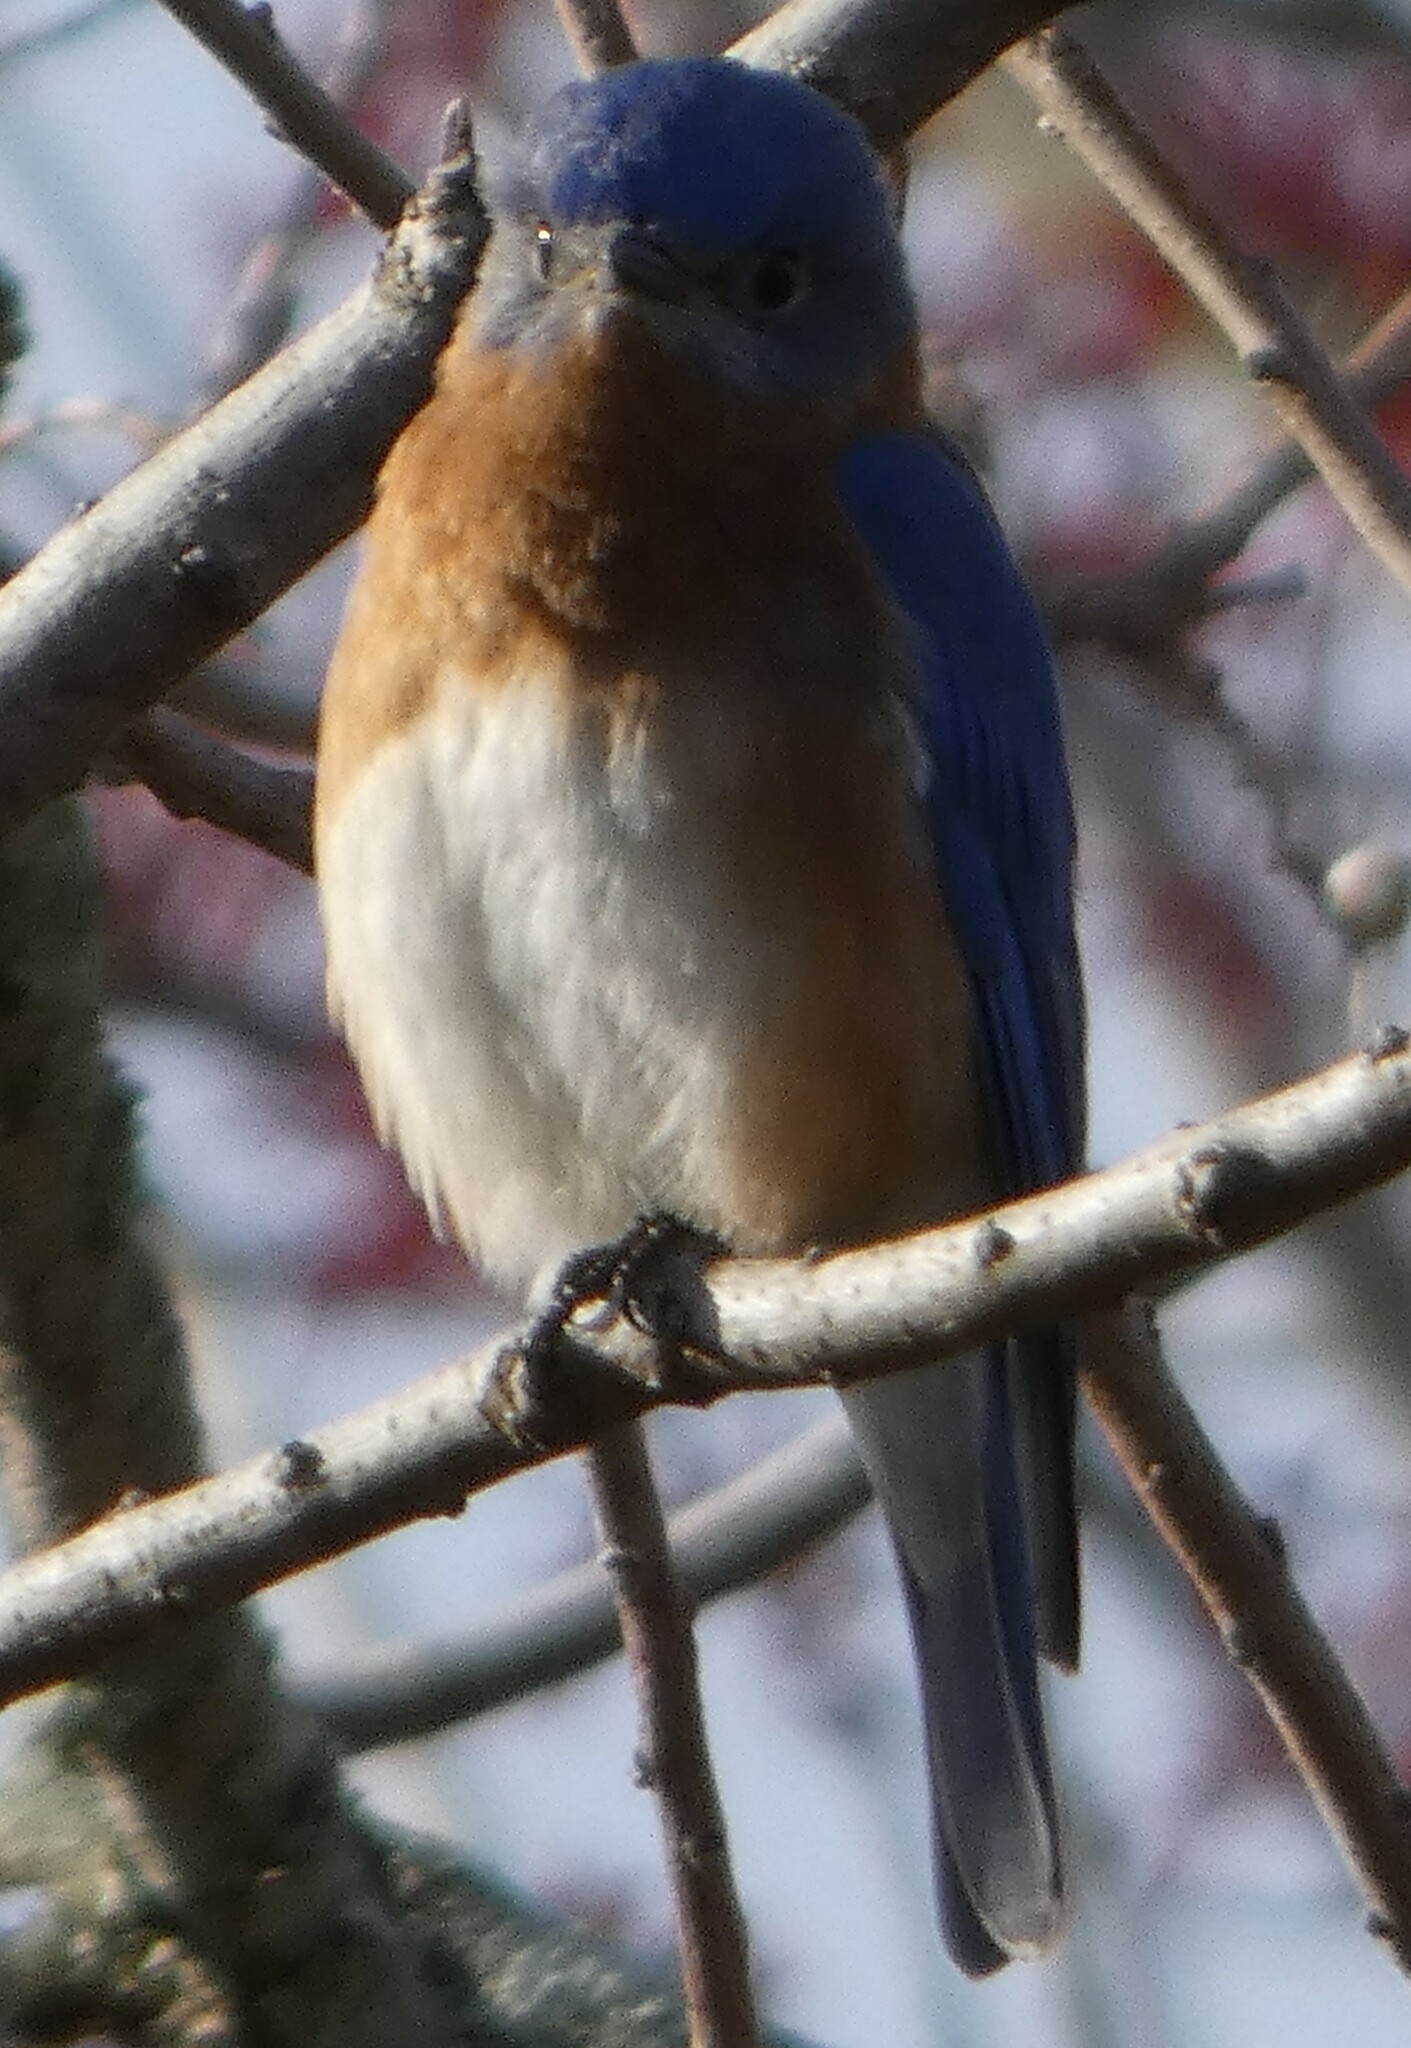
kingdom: Animalia
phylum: Chordata
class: Aves
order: Passeriformes
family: Turdidae
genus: Sialia
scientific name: Sialia sialis
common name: Eastern bluebird
